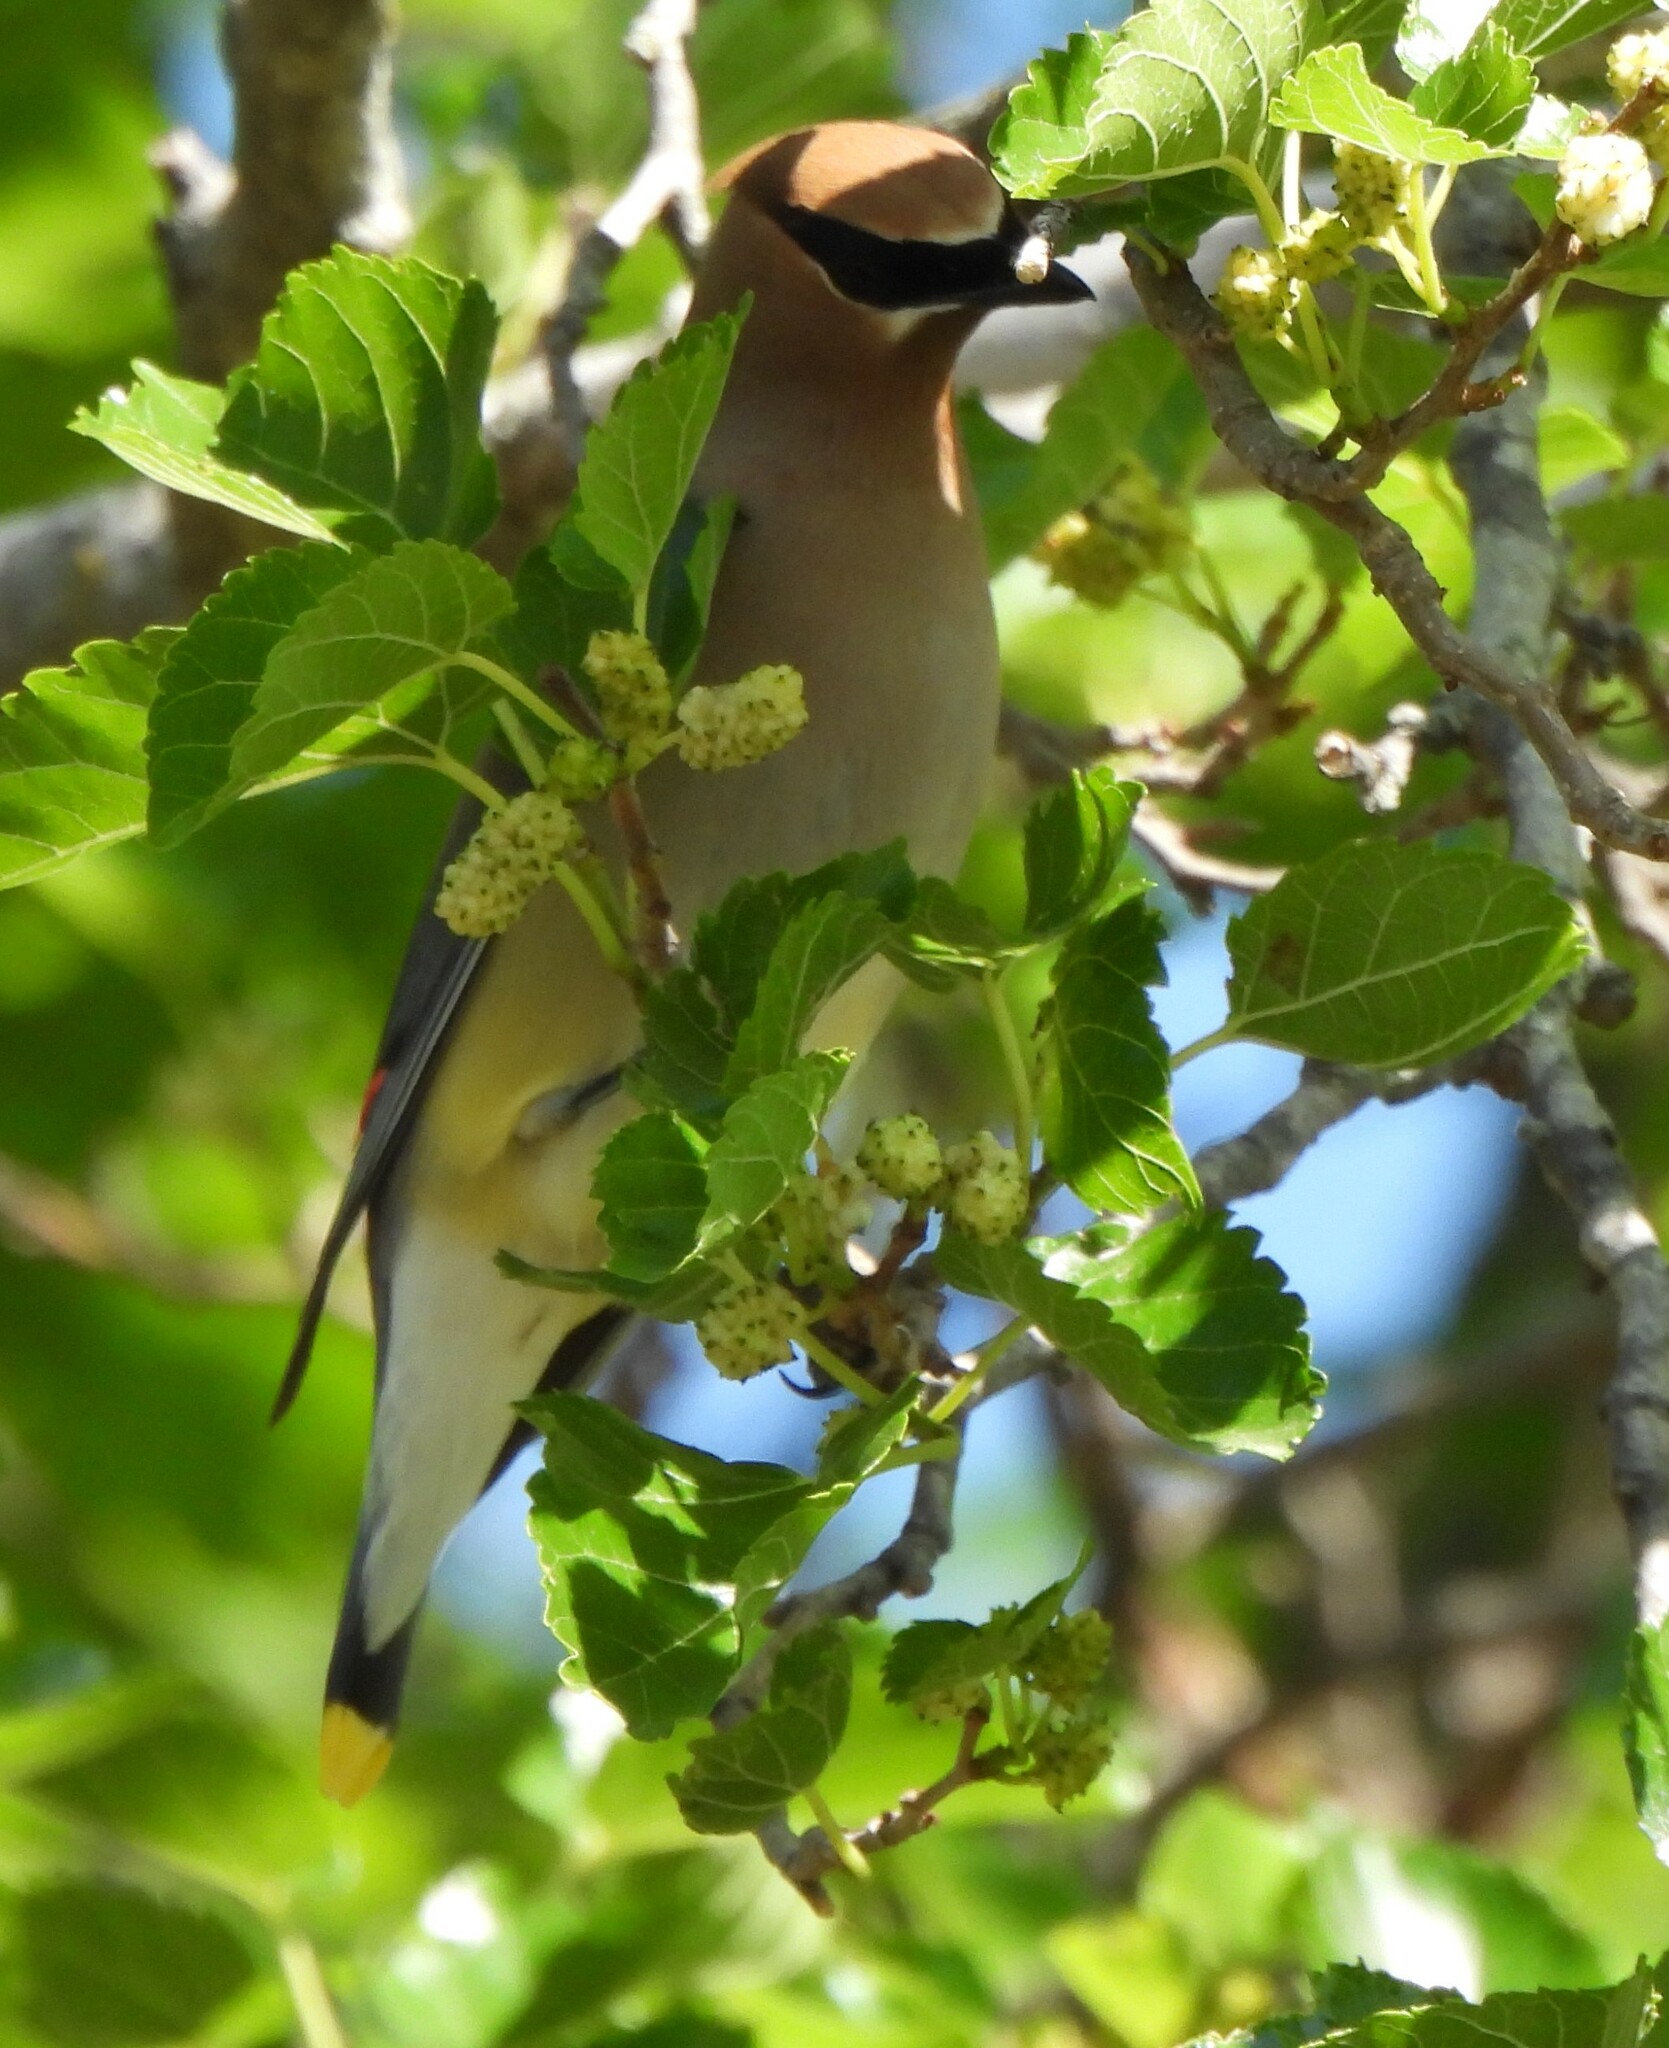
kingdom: Animalia
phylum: Chordata
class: Aves
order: Passeriformes
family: Bombycillidae
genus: Bombycilla
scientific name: Bombycilla cedrorum
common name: Cedar waxwing
